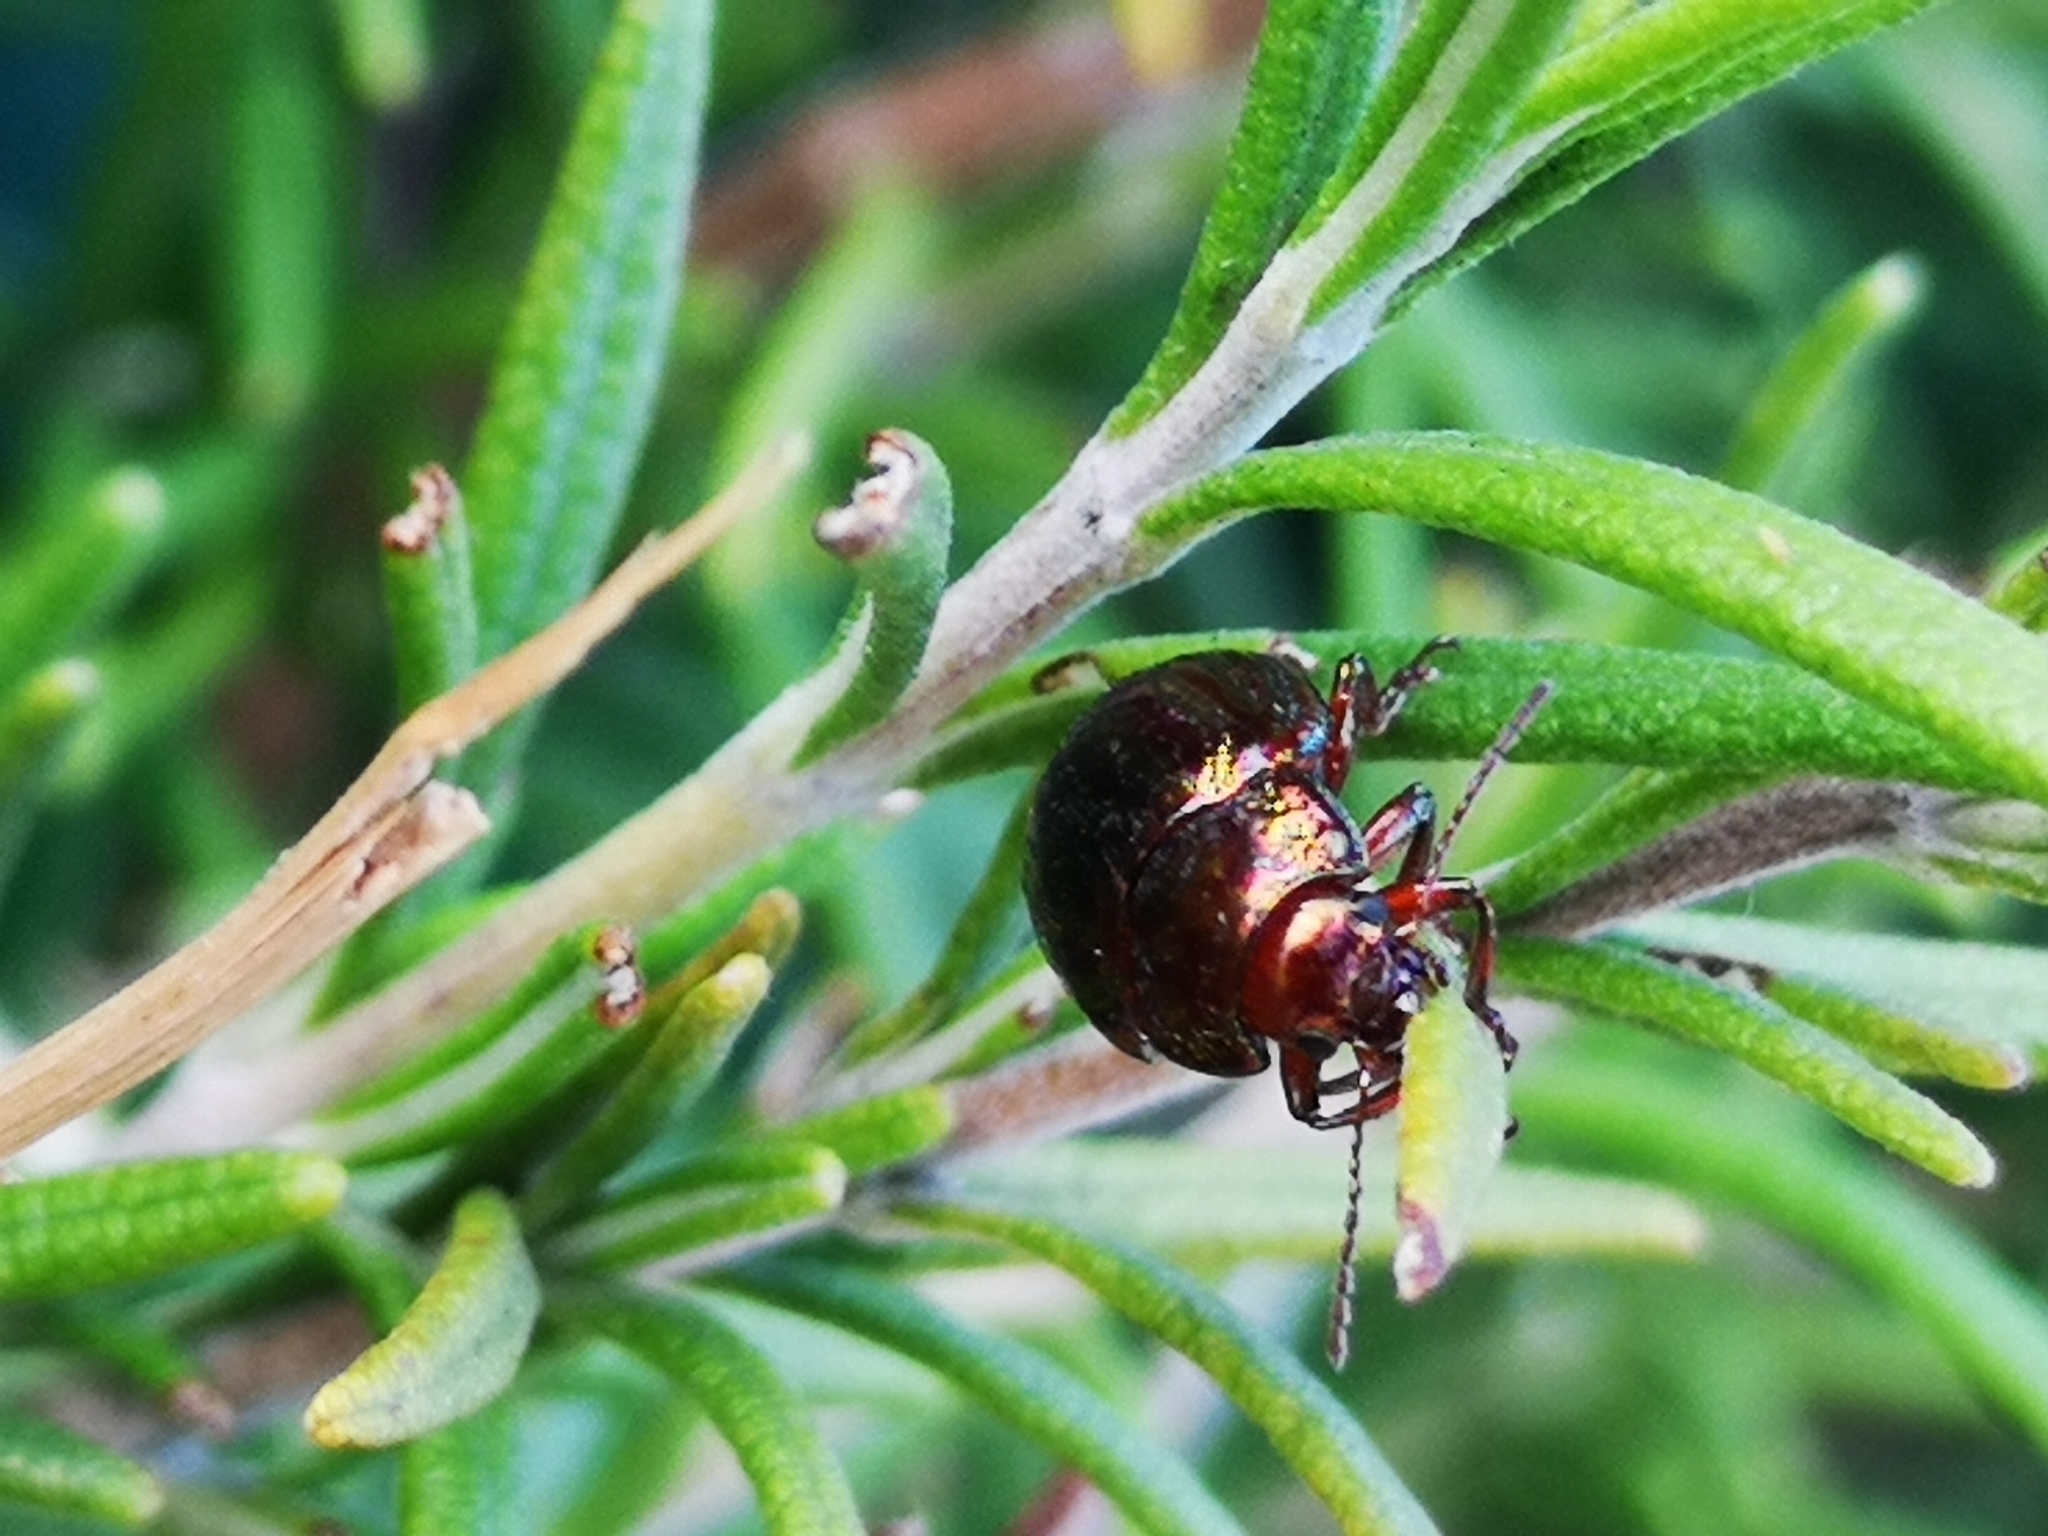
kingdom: Animalia
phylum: Arthropoda
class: Insecta
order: Coleoptera
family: Chrysomelidae
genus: Chrysolina
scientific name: Chrysolina americana
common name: Rosemary beetle
